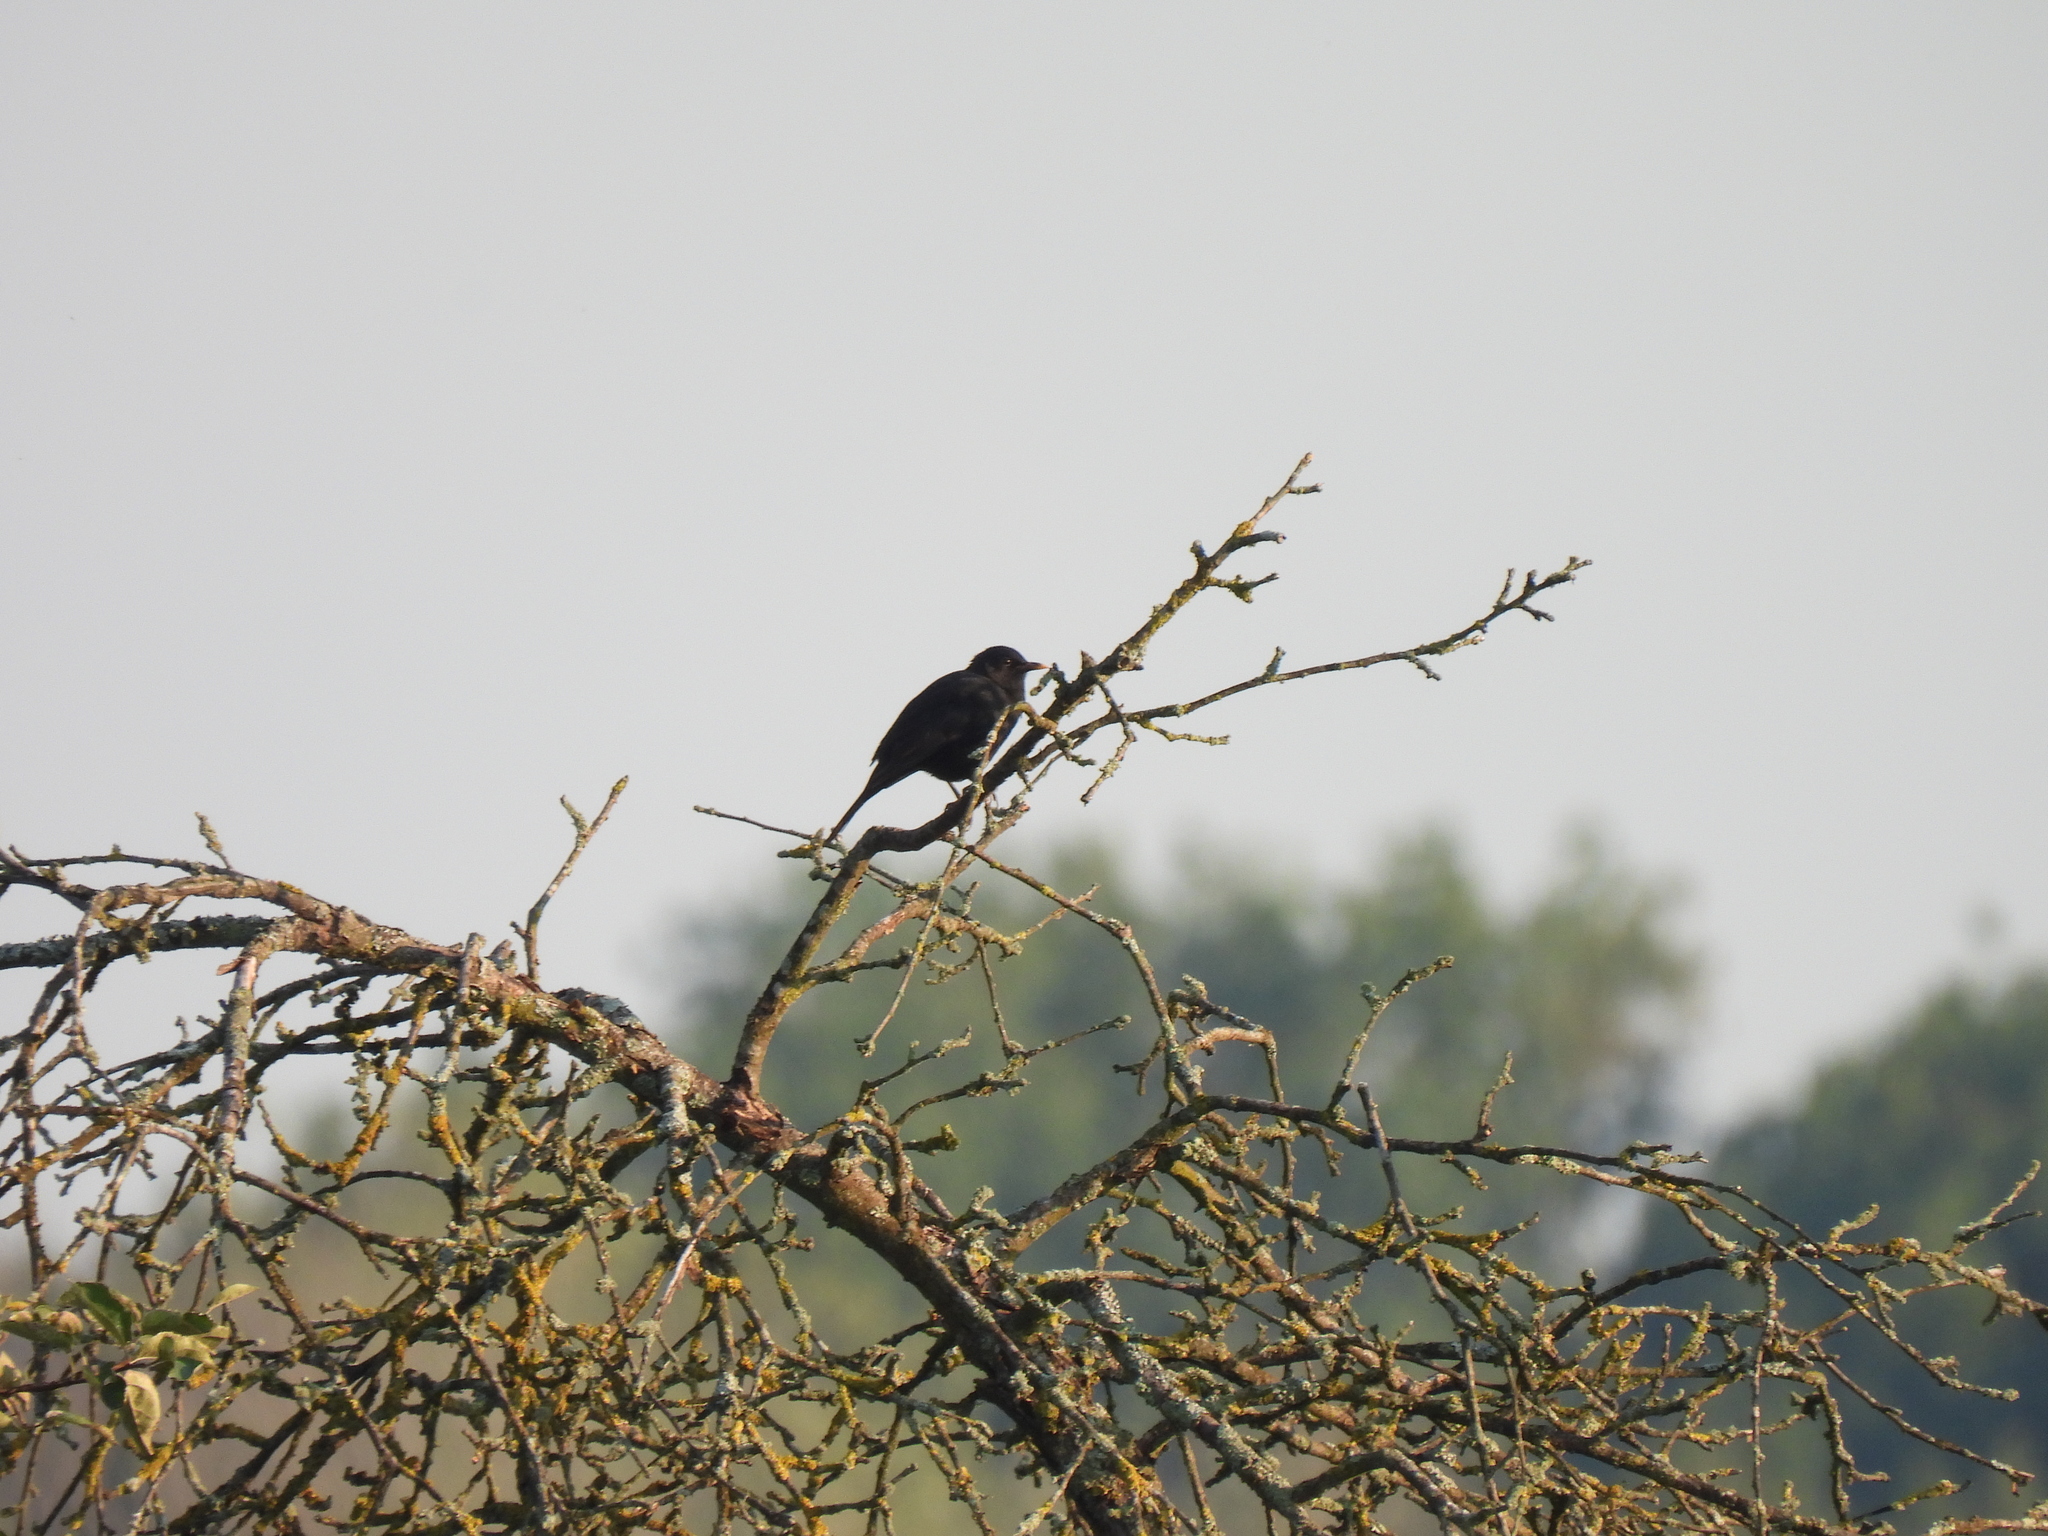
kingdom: Animalia
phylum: Chordata
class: Aves
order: Passeriformes
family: Turdidae
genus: Turdus
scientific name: Turdus merula
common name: Common blackbird
